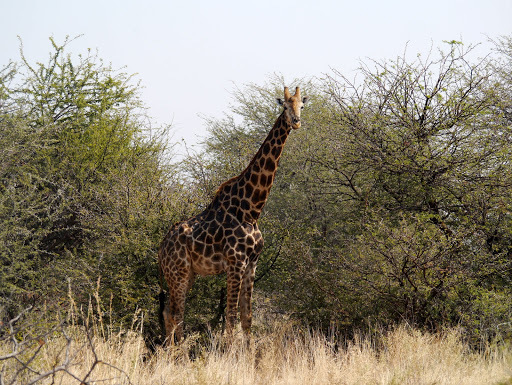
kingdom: Animalia
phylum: Chordata
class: Mammalia
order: Artiodactyla
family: Giraffidae
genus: Giraffa
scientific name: Giraffa giraffa
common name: Southern giraffe
